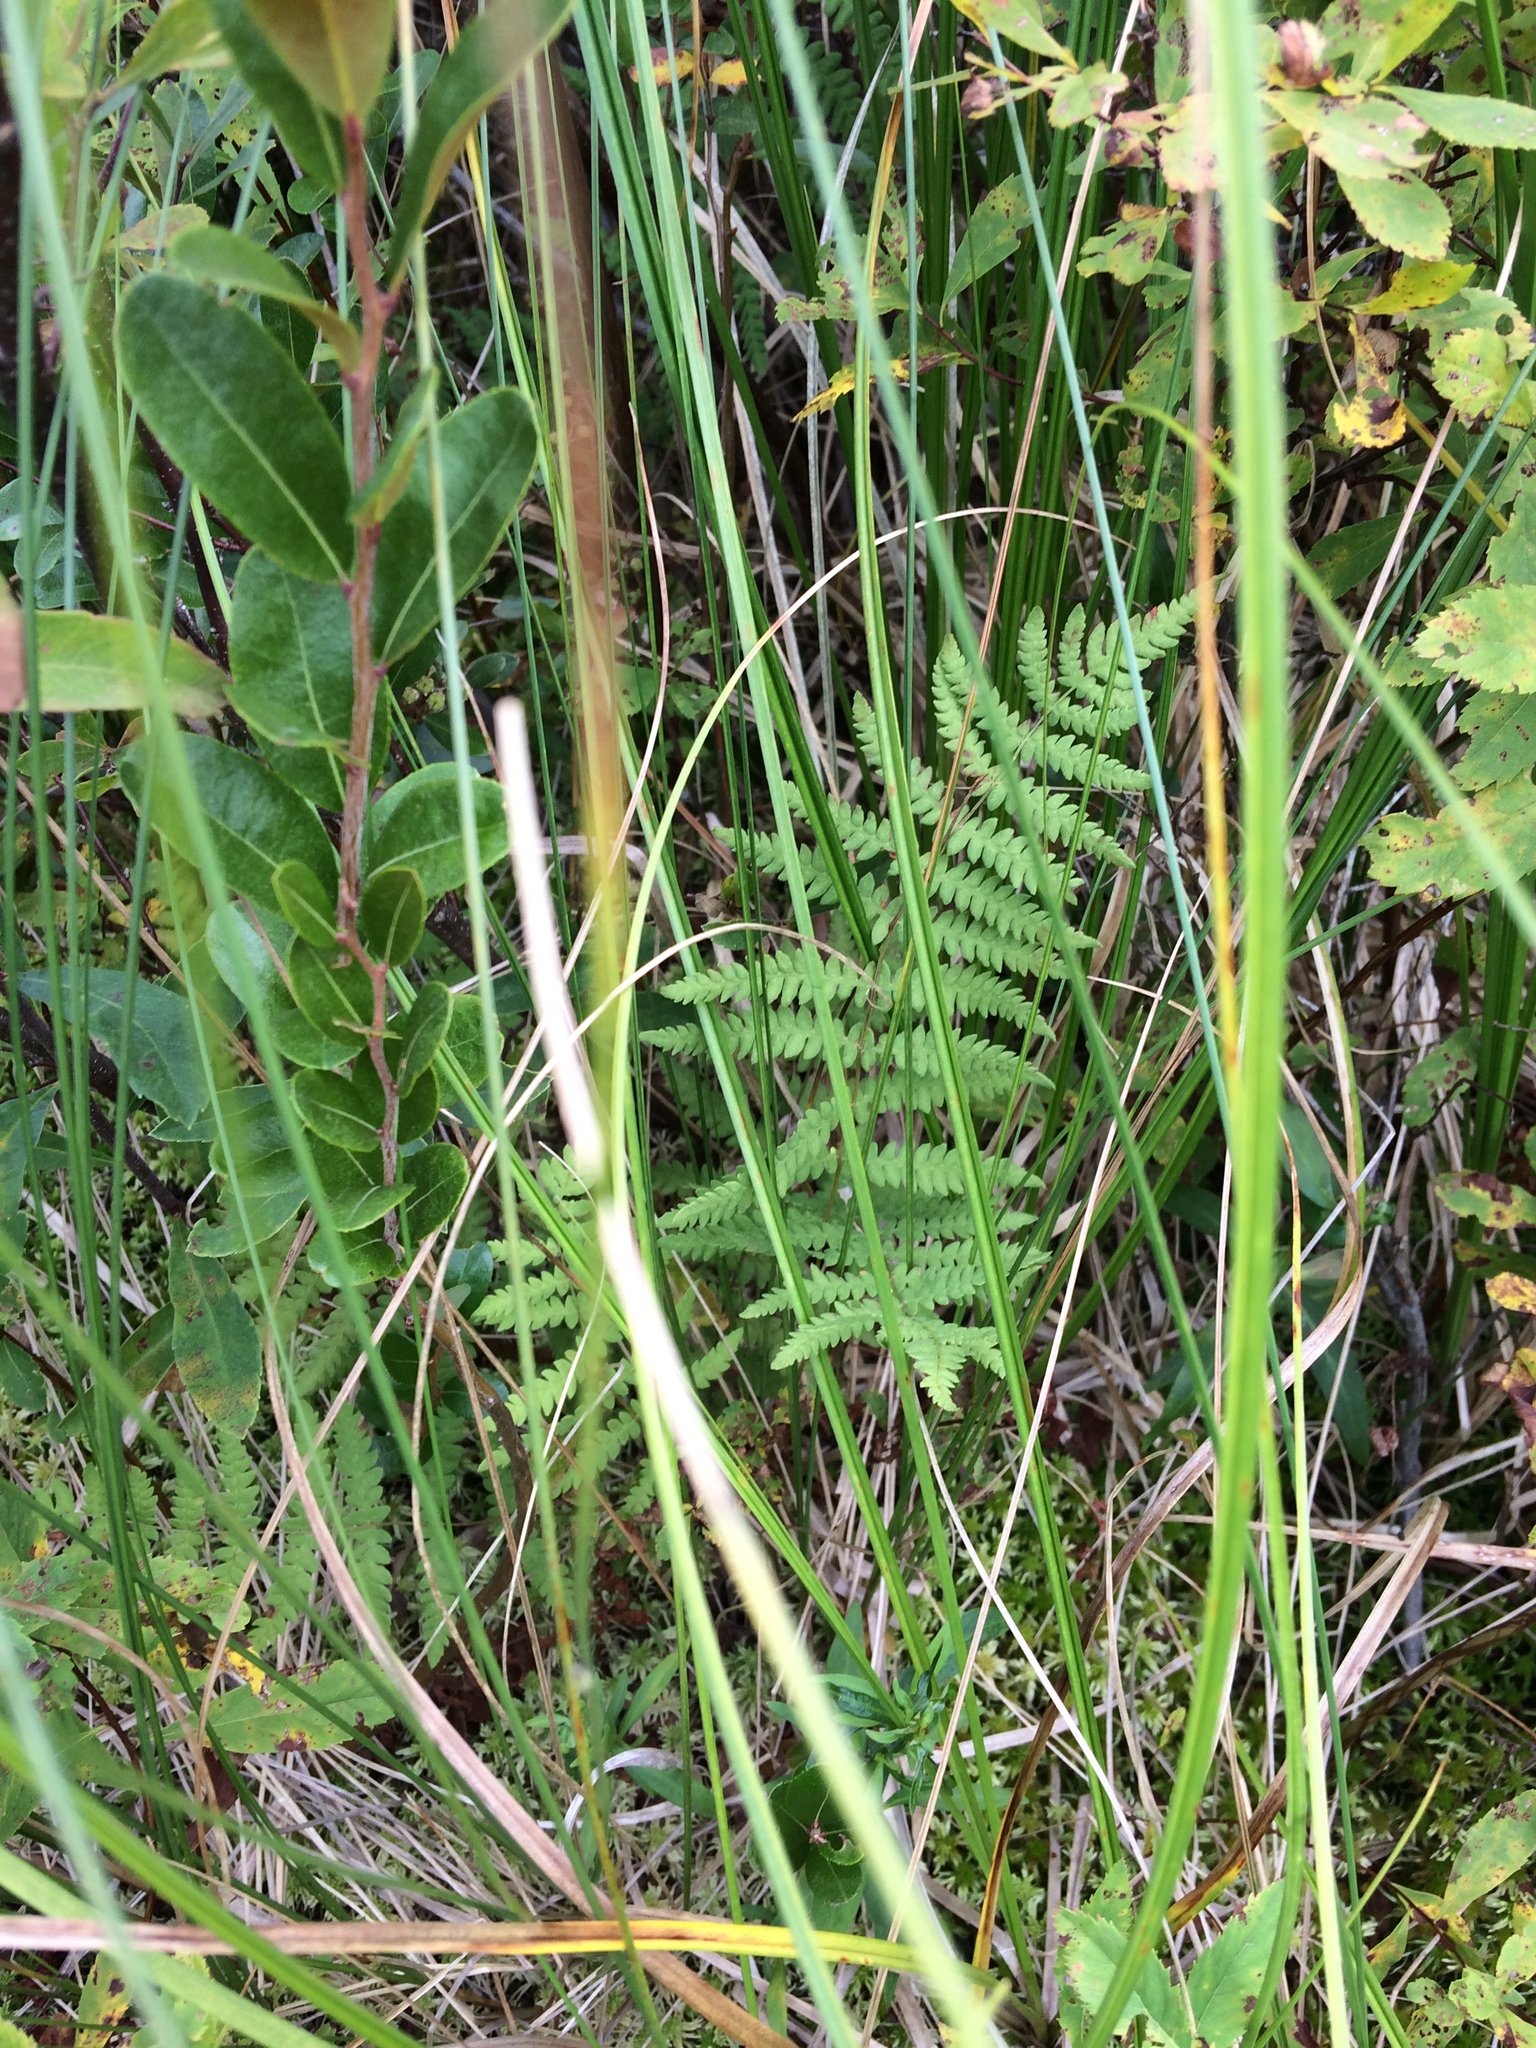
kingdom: Plantae
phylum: Tracheophyta
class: Polypodiopsida
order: Polypodiales
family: Thelypteridaceae
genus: Thelypteris
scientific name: Thelypteris palustris
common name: Marsh fern
